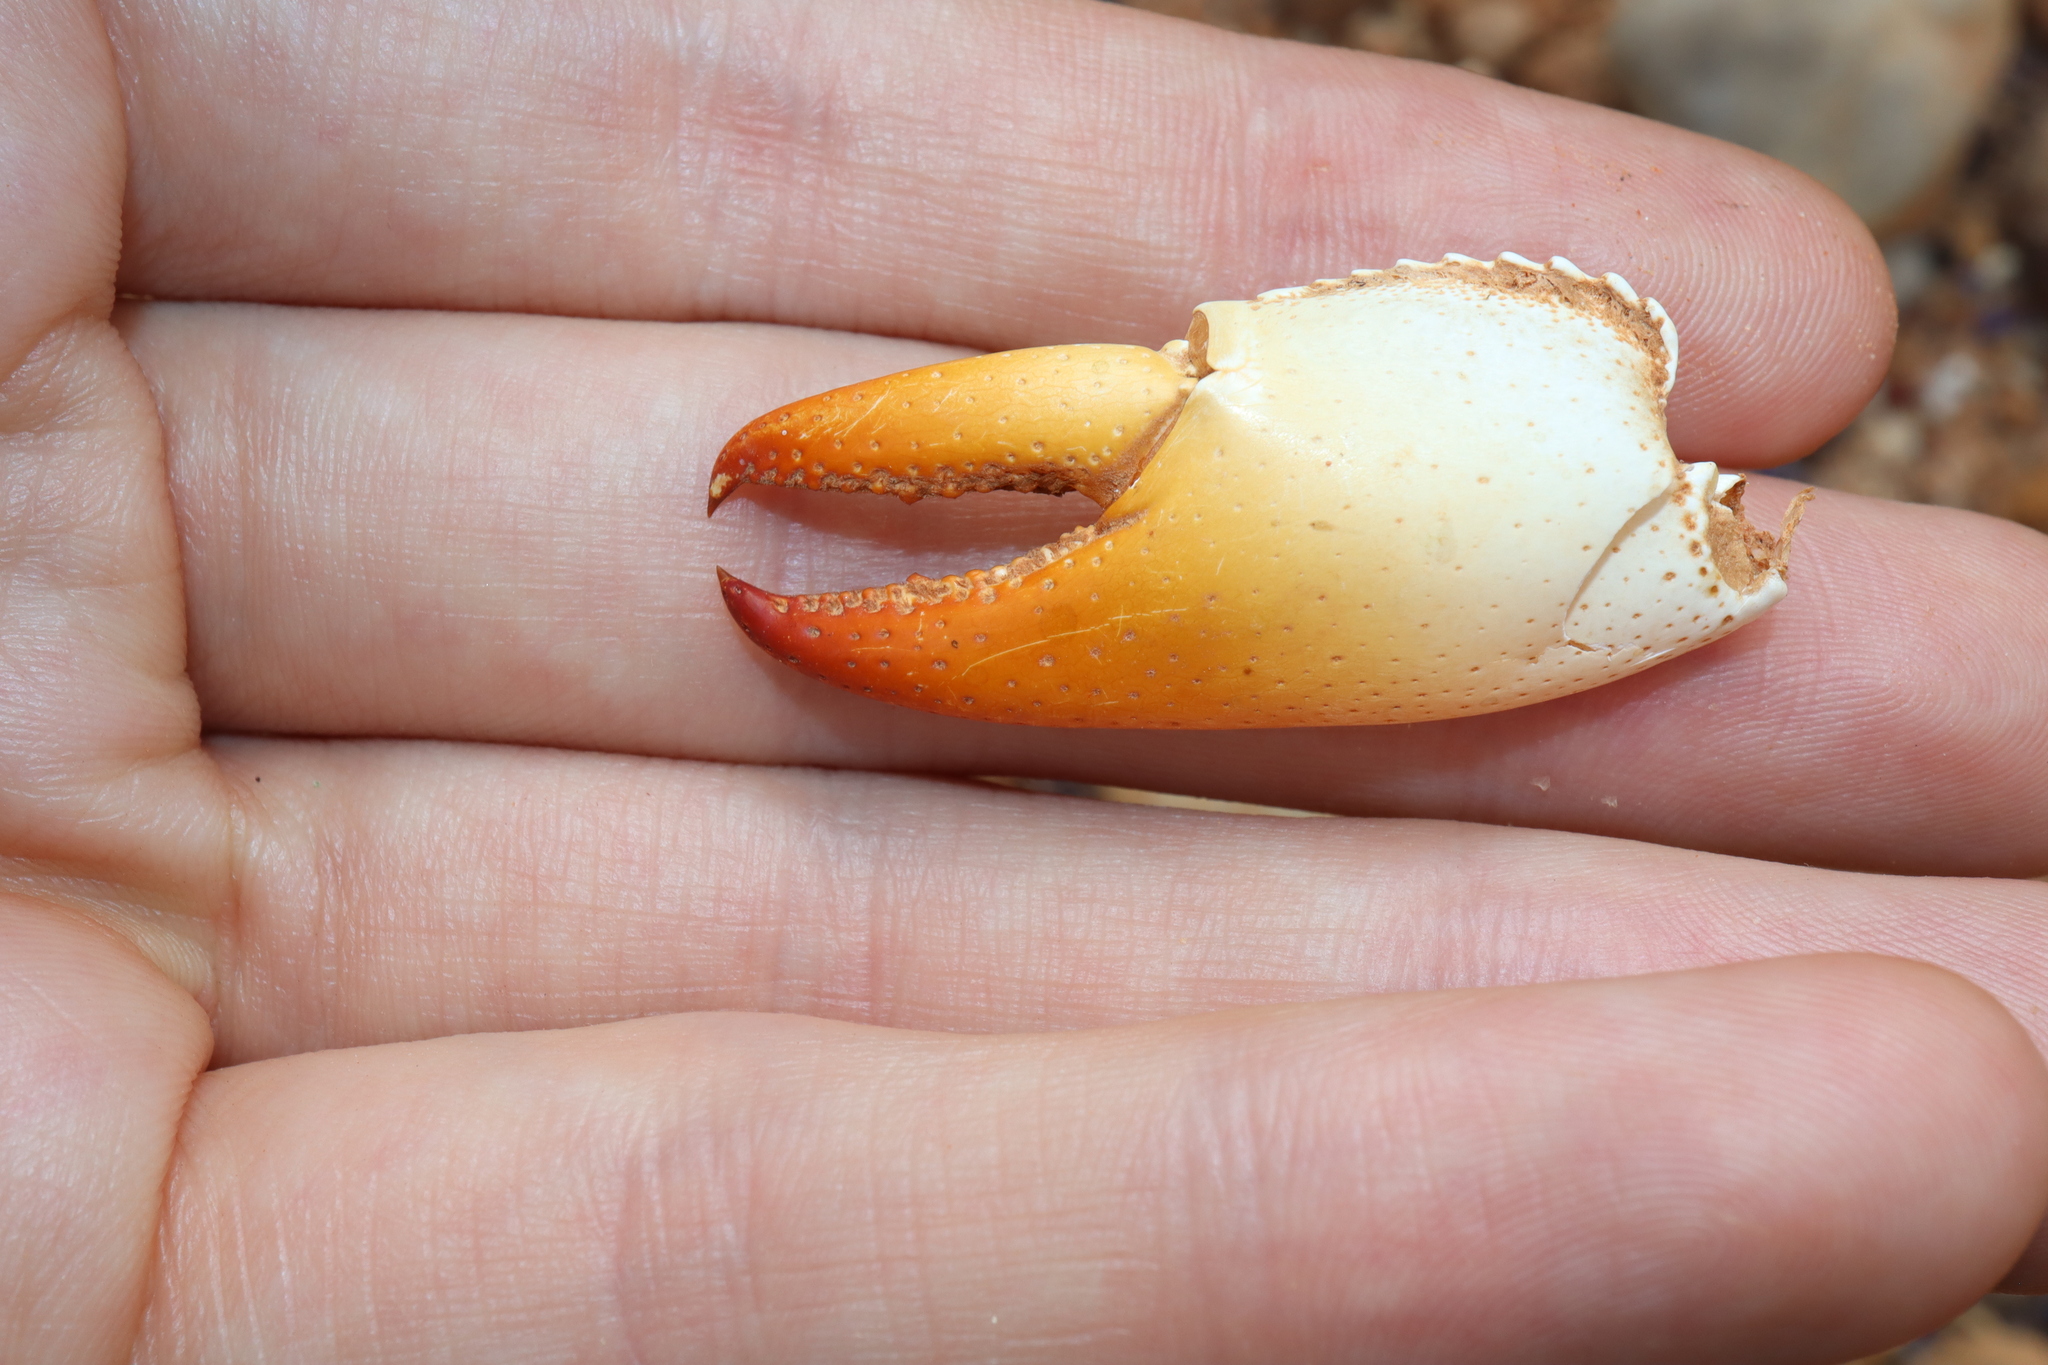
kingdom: Animalia
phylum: Arthropoda
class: Malacostraca
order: Decapoda
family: Parastacidae
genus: Cherax
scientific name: Cherax destructor
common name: Yabby
